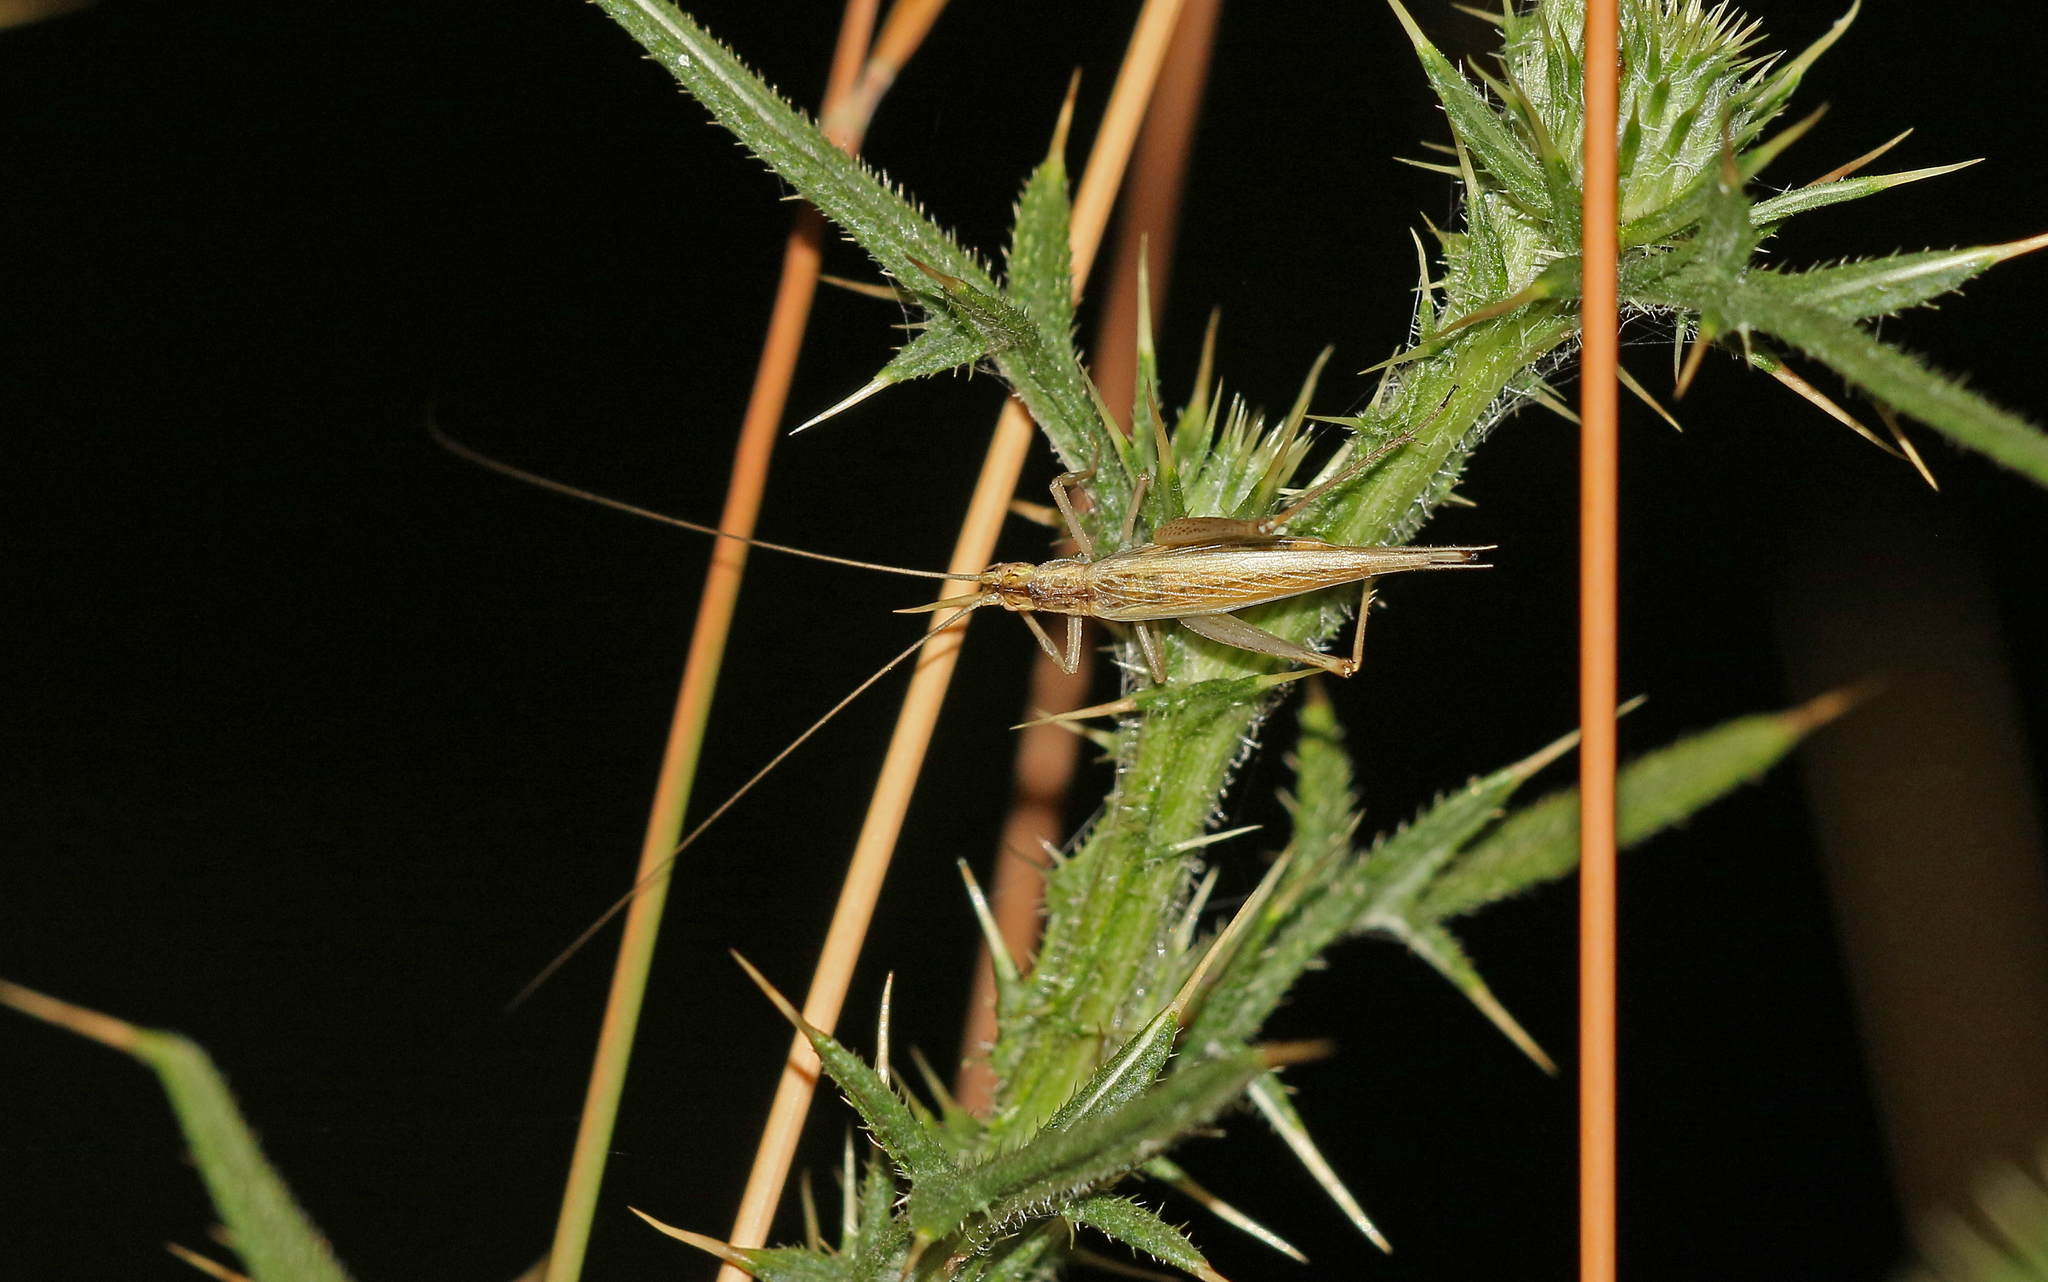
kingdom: Animalia
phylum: Arthropoda
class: Insecta
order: Orthoptera
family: Gryllidae
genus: Oecanthus
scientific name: Oecanthus pellucens
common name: Tree-cricket
